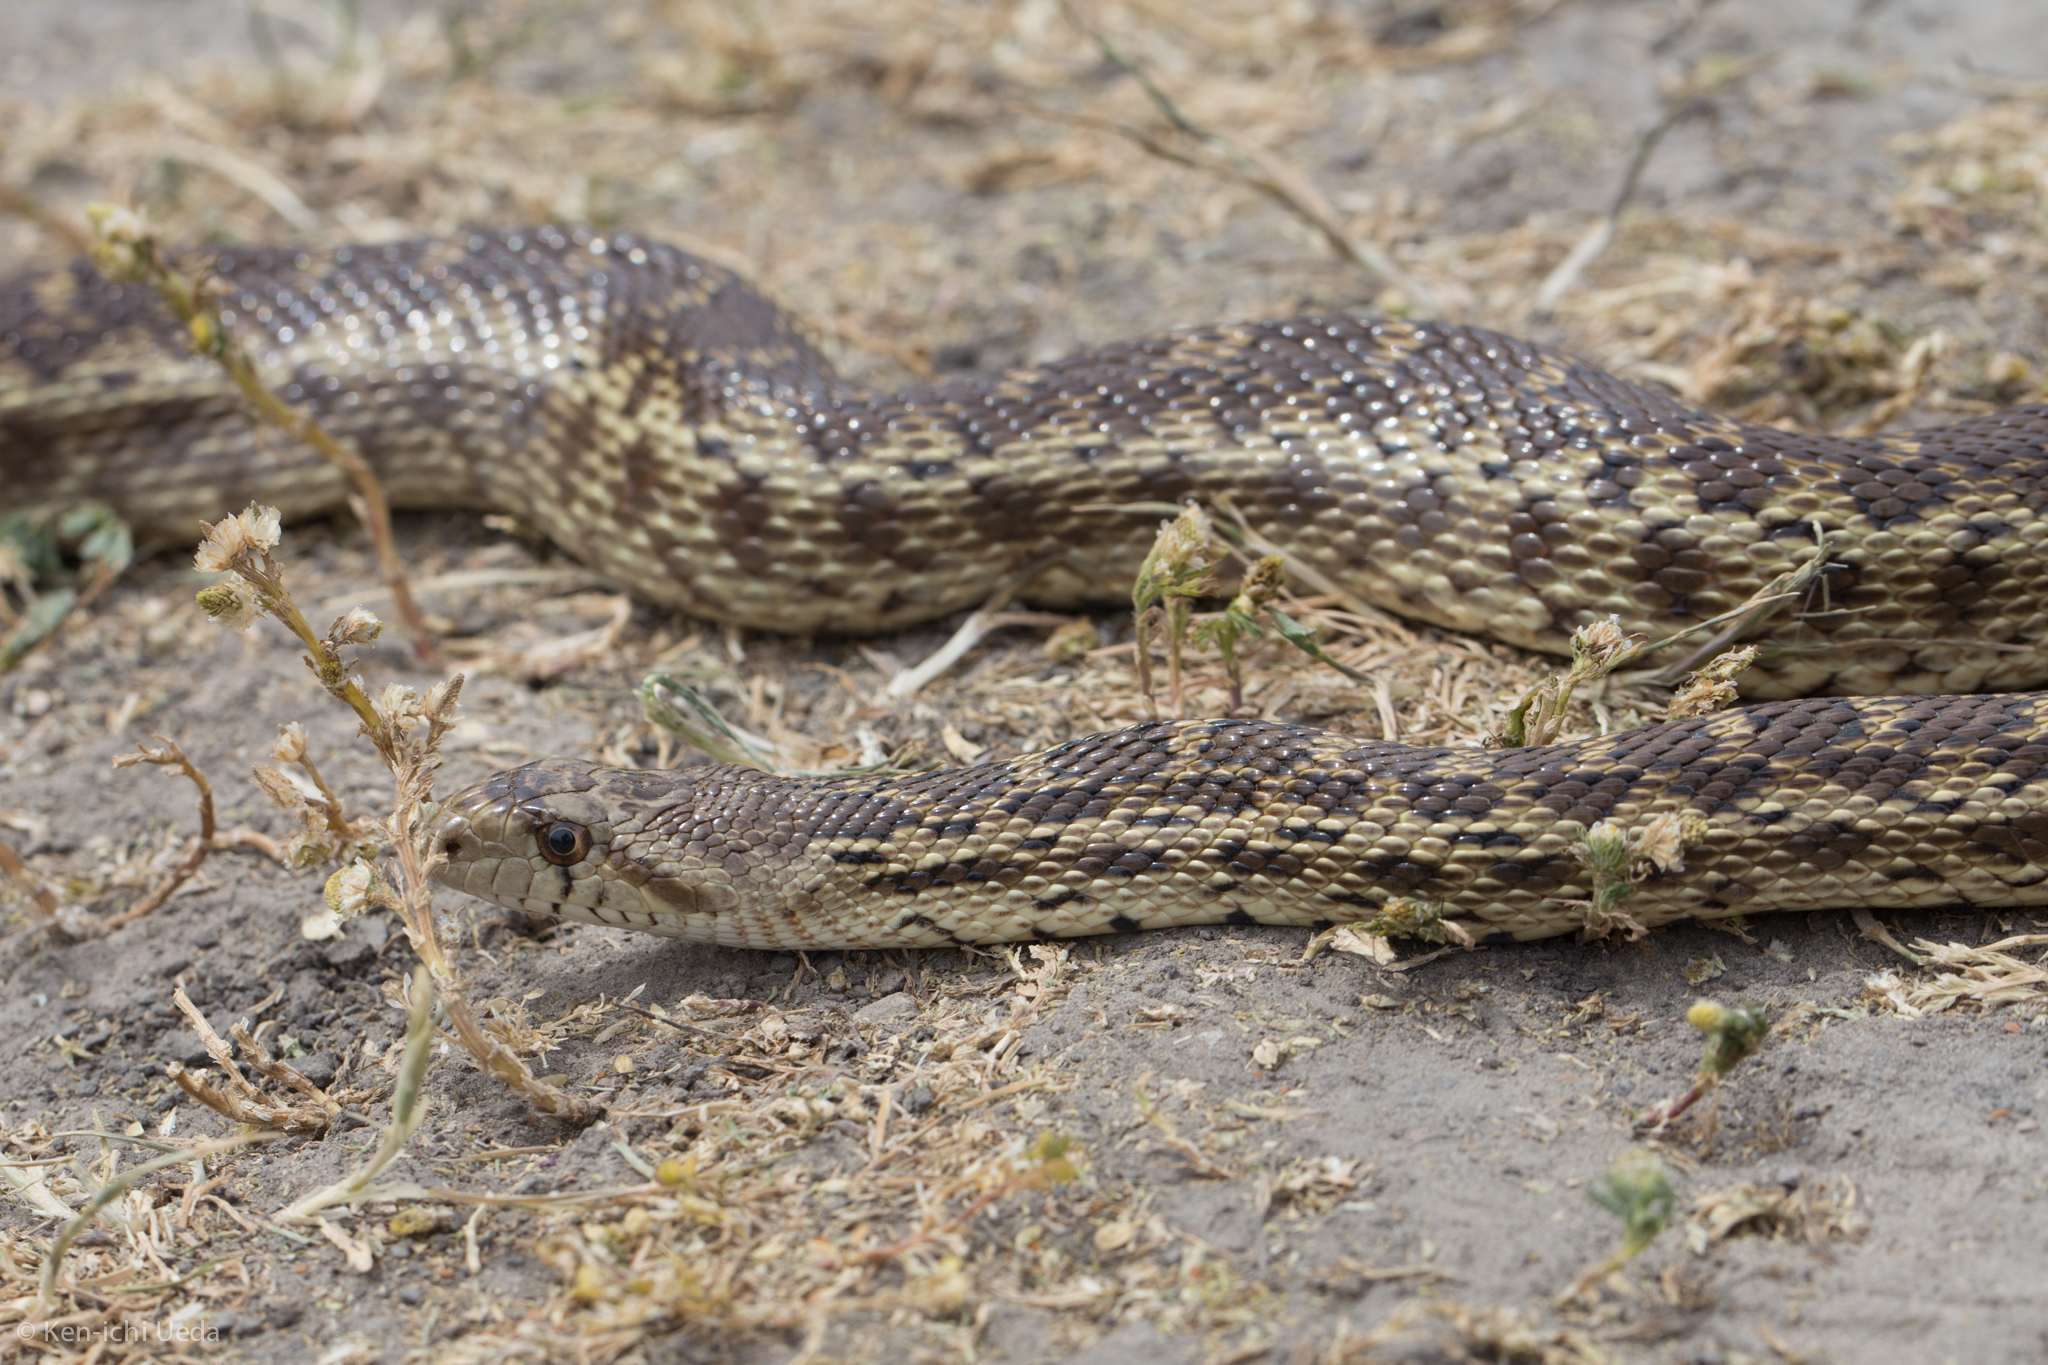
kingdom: Animalia
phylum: Chordata
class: Squamata
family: Colubridae
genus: Pituophis
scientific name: Pituophis catenifer
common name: Gopher snake
